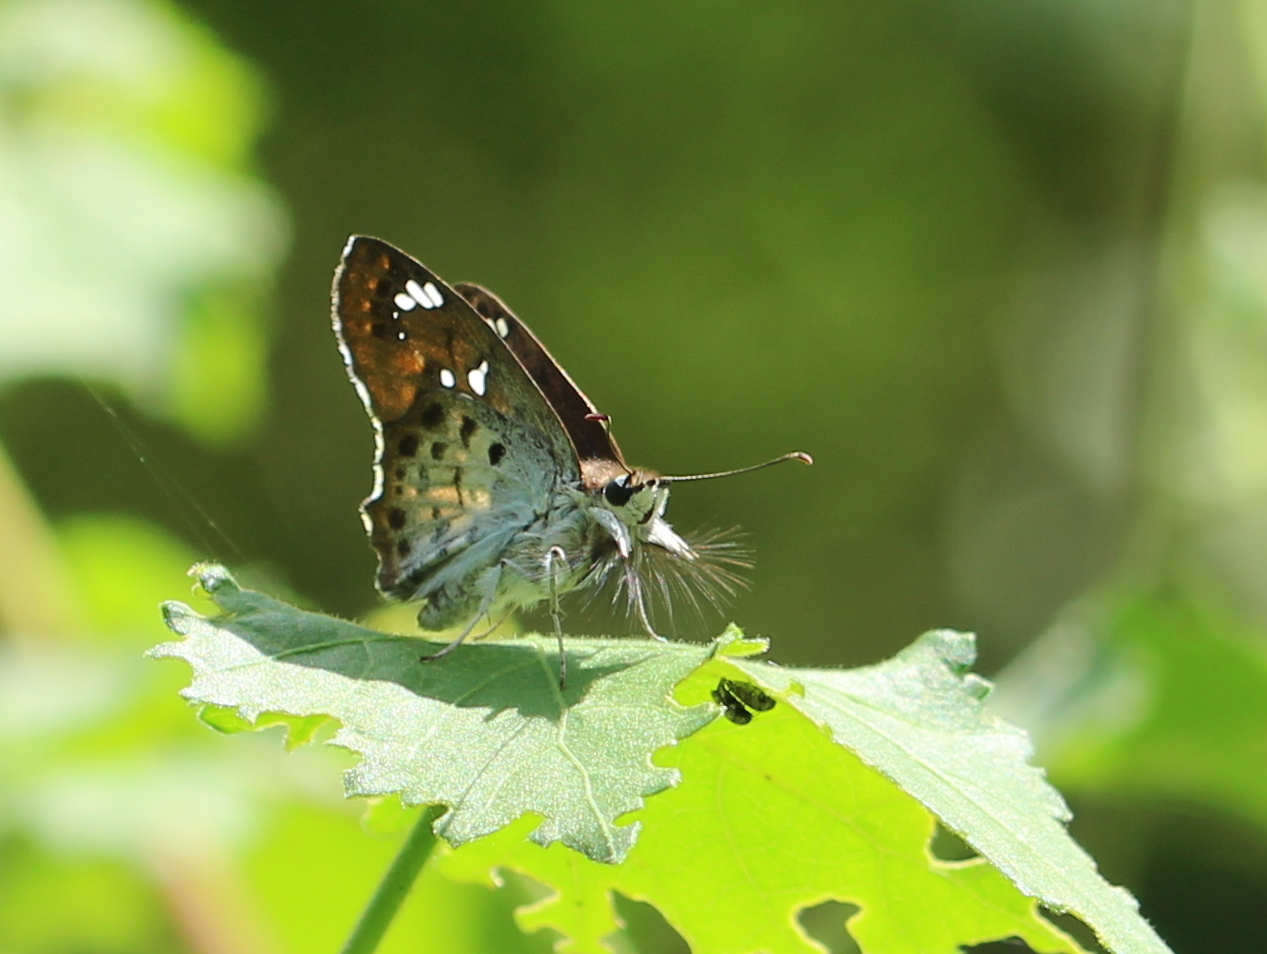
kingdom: Animalia
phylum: Arthropoda
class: Insecta
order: Lepidoptera
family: Hesperiidae
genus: Caprona
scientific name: Caprona ransonnettii
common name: Golden angle
